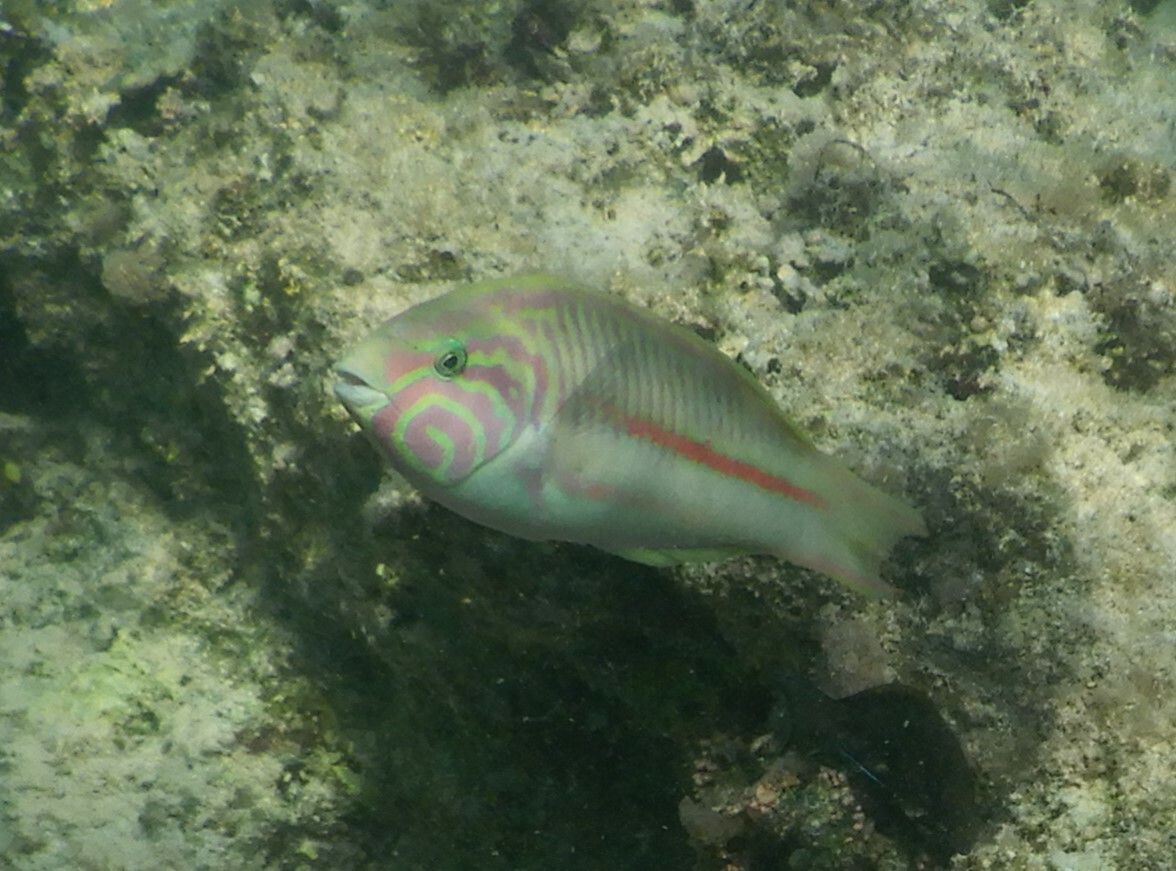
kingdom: Animalia
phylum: Chordata
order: Perciformes
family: Labridae
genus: Thalassoma
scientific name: Thalassoma rueppellii
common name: Klunzinger's wrasse
